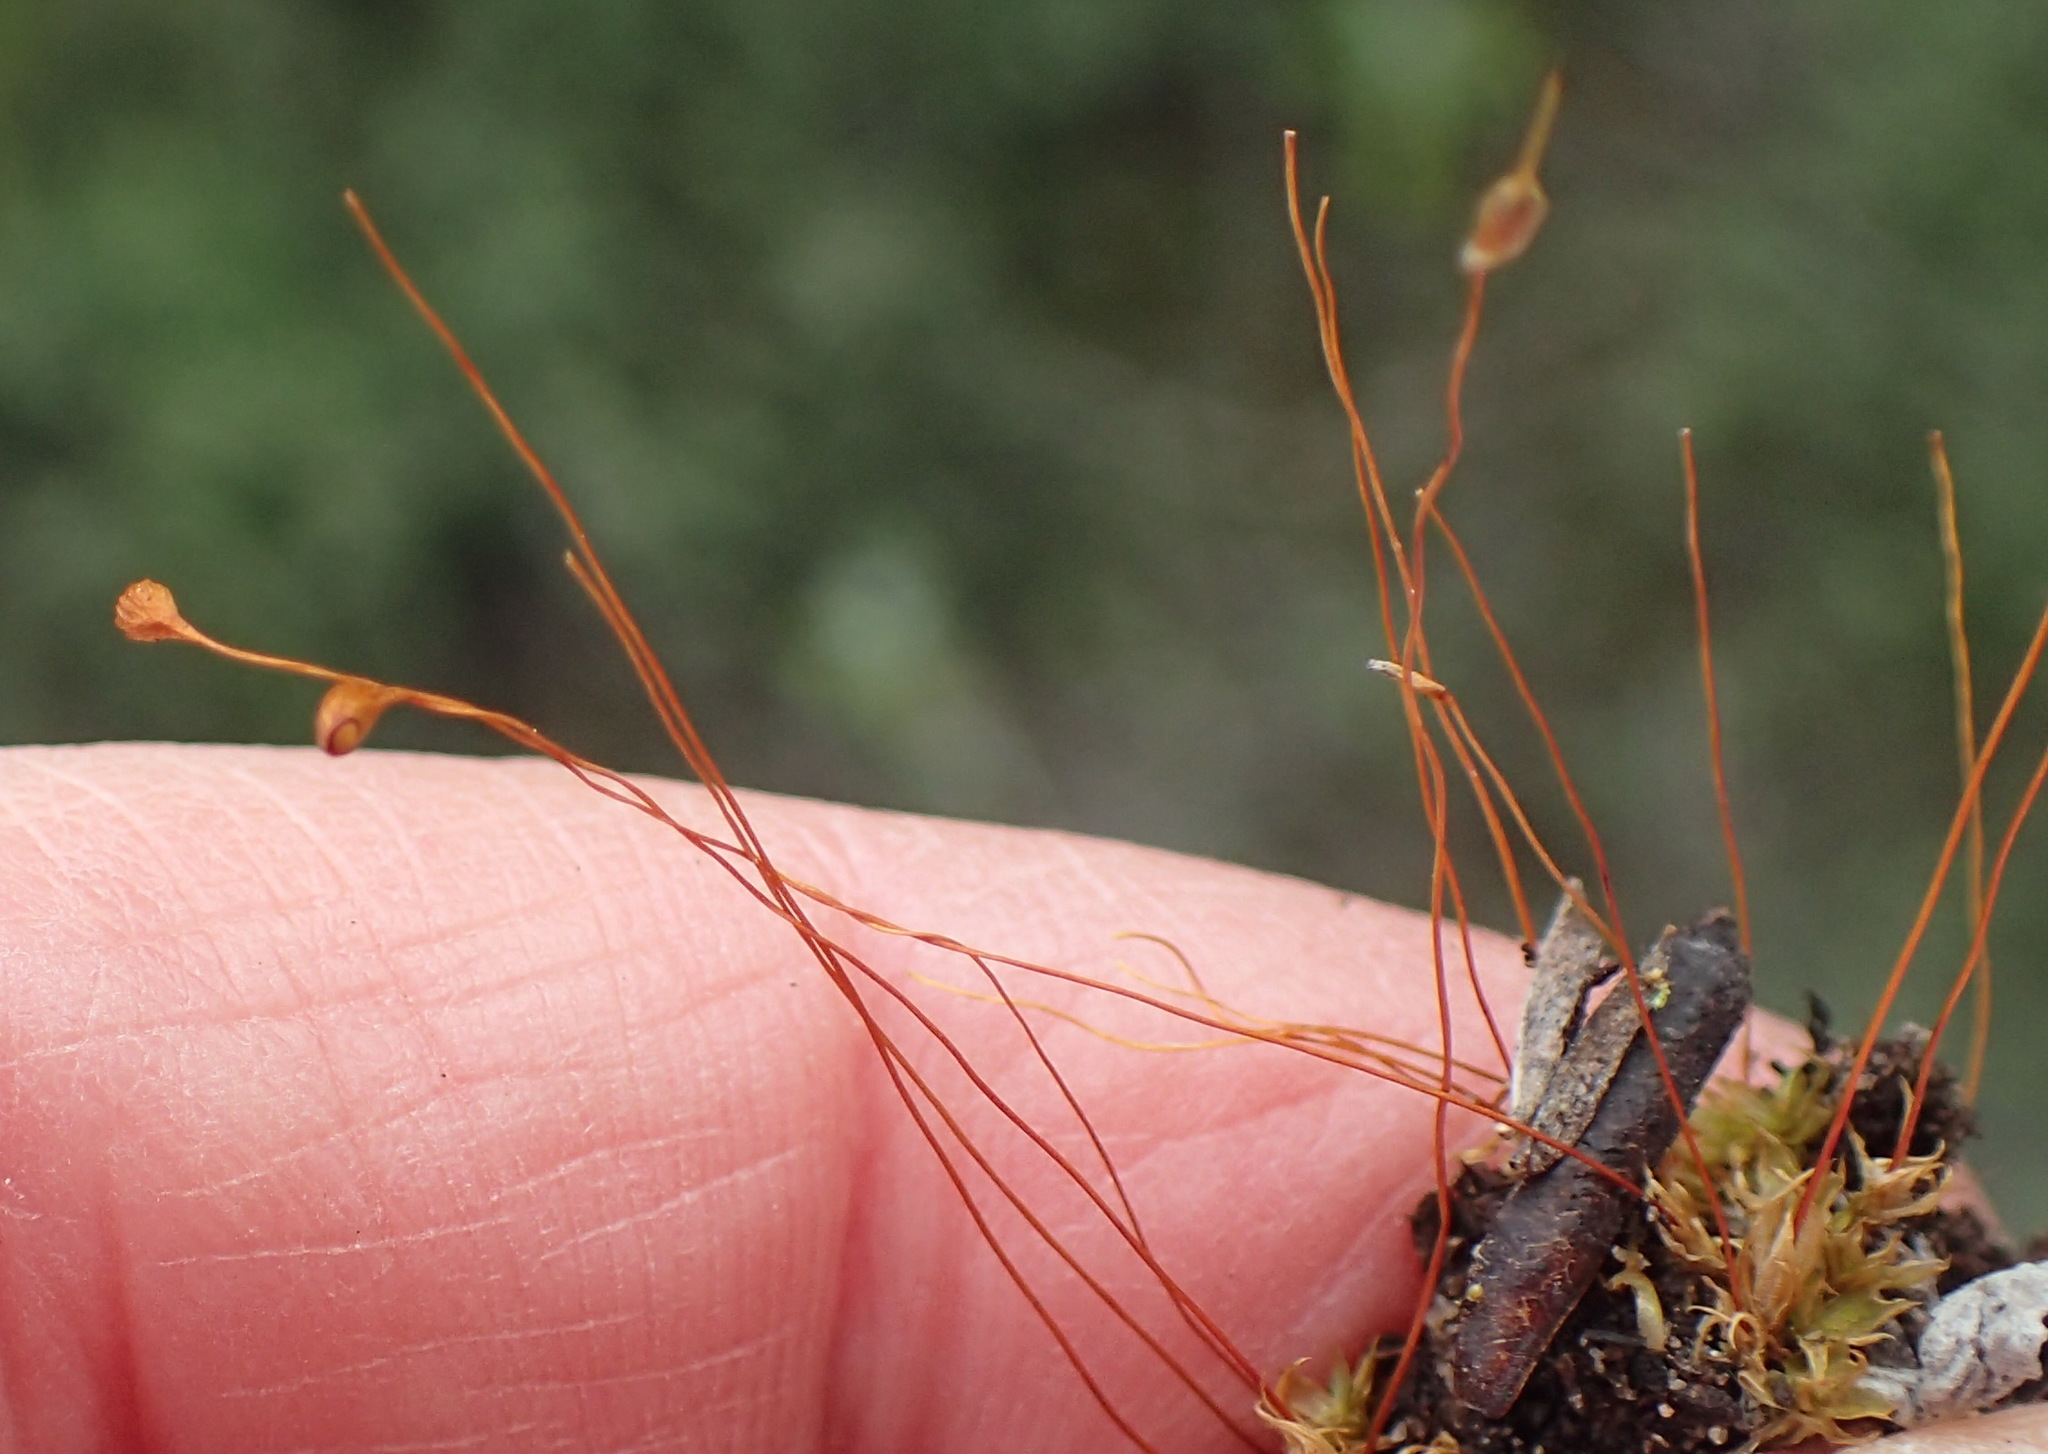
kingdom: Plantae
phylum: Bryophyta
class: Bryopsida
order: Funariales
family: Funariaceae
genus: Funaria
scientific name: Funaria hygrometrica
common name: Common cord moss
